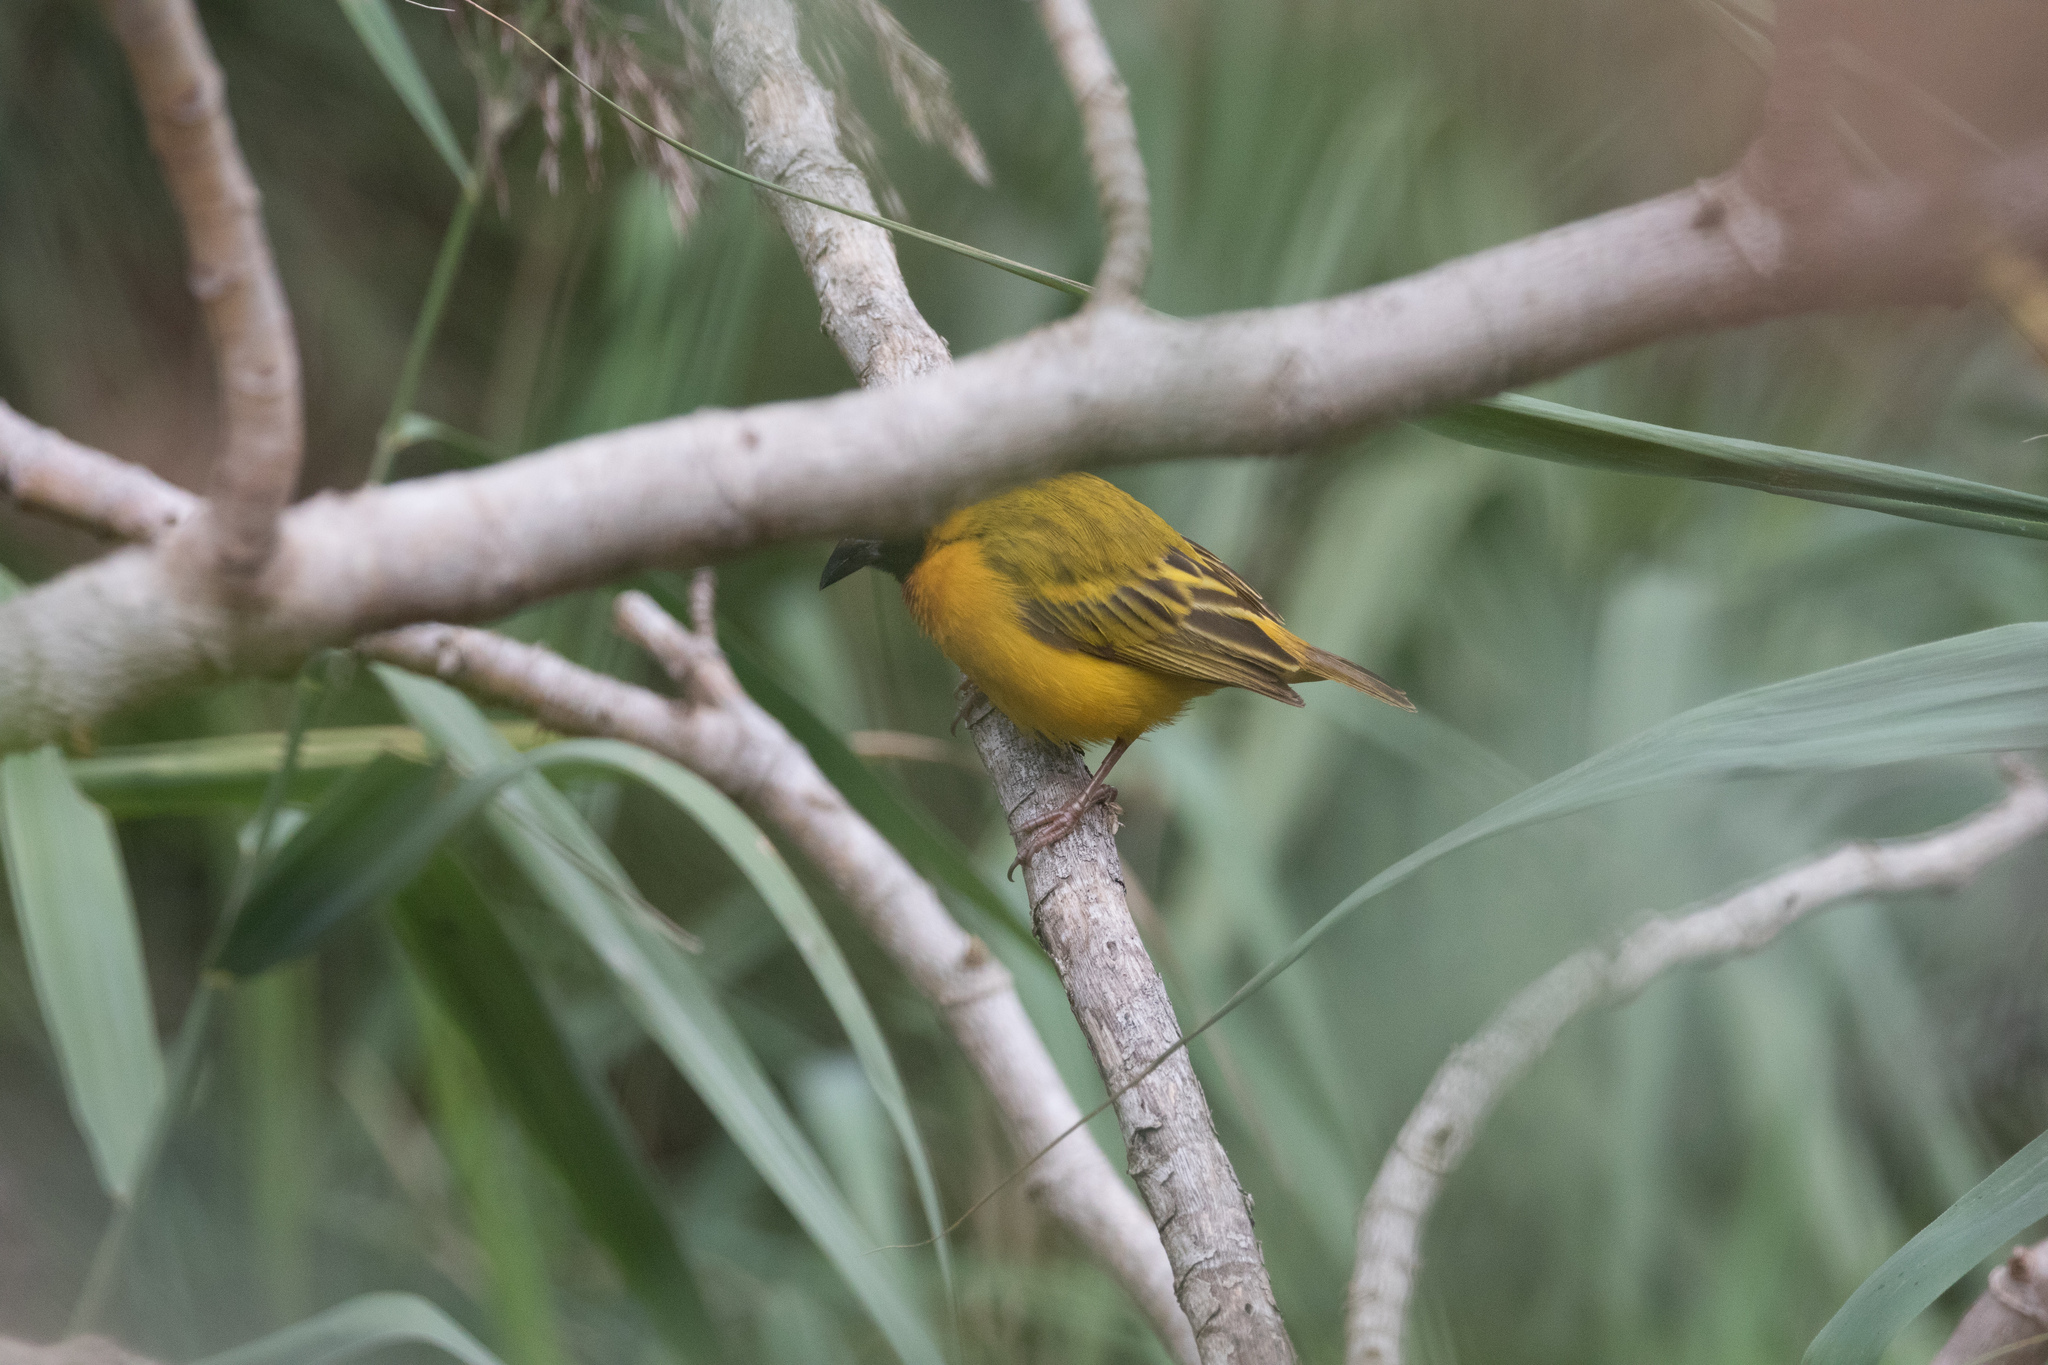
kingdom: Animalia
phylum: Chordata
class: Aves
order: Passeriformes
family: Ploceidae
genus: Ploceus
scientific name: Ploceus melanocephalus
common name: Black-headed weaver
